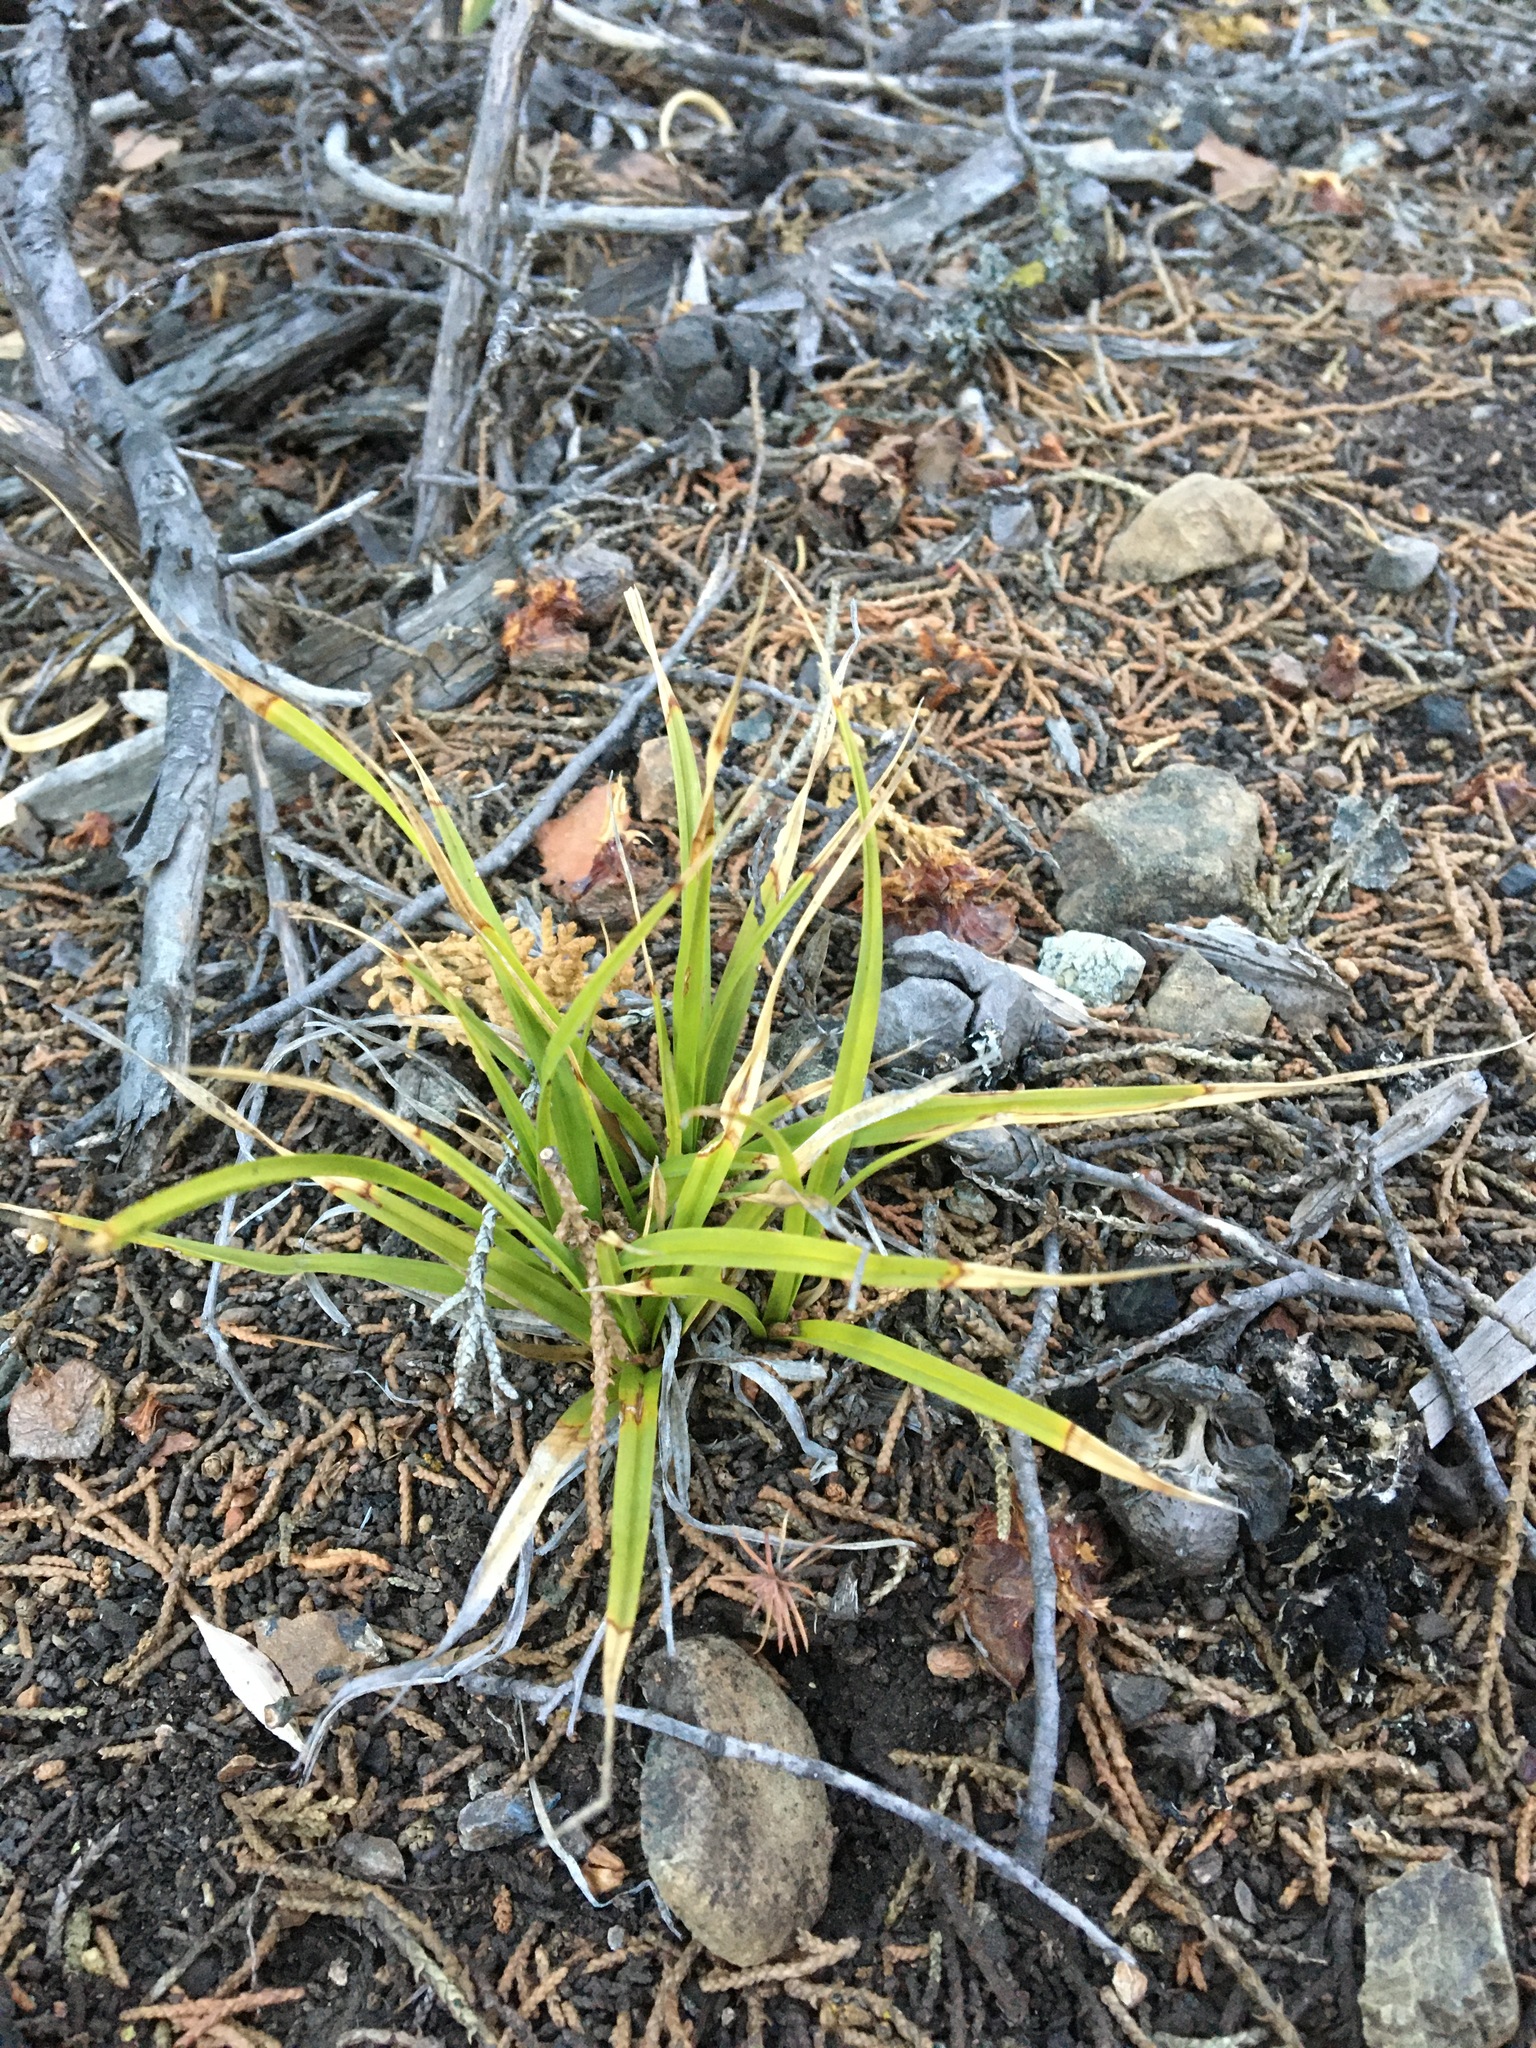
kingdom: Plantae
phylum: Tracheophyta
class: Liliopsida
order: Poales
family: Cyperaceae
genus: Carex
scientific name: Carex obispoensis
